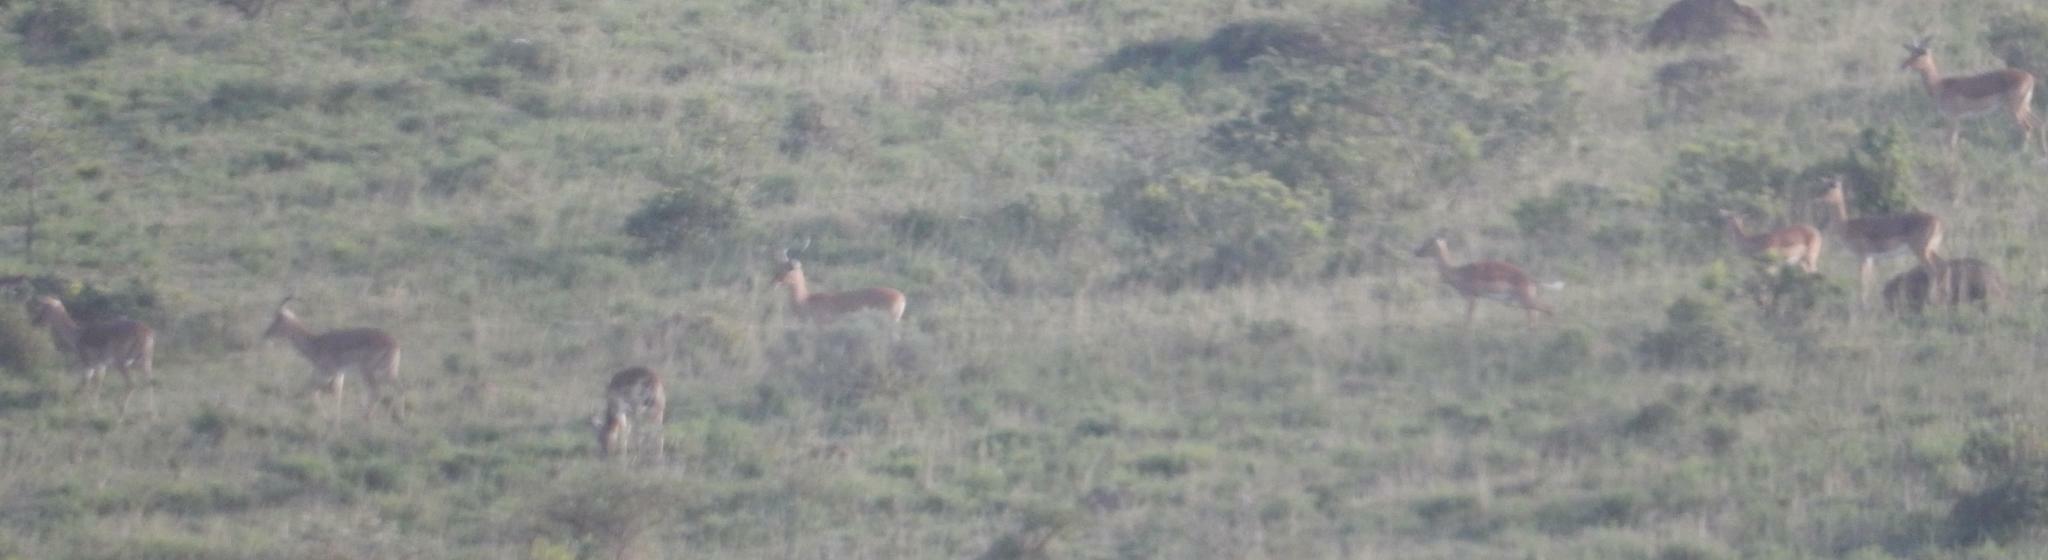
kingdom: Animalia
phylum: Chordata
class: Mammalia
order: Artiodactyla
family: Bovidae
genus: Aepyceros
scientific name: Aepyceros melampus
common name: Impala
